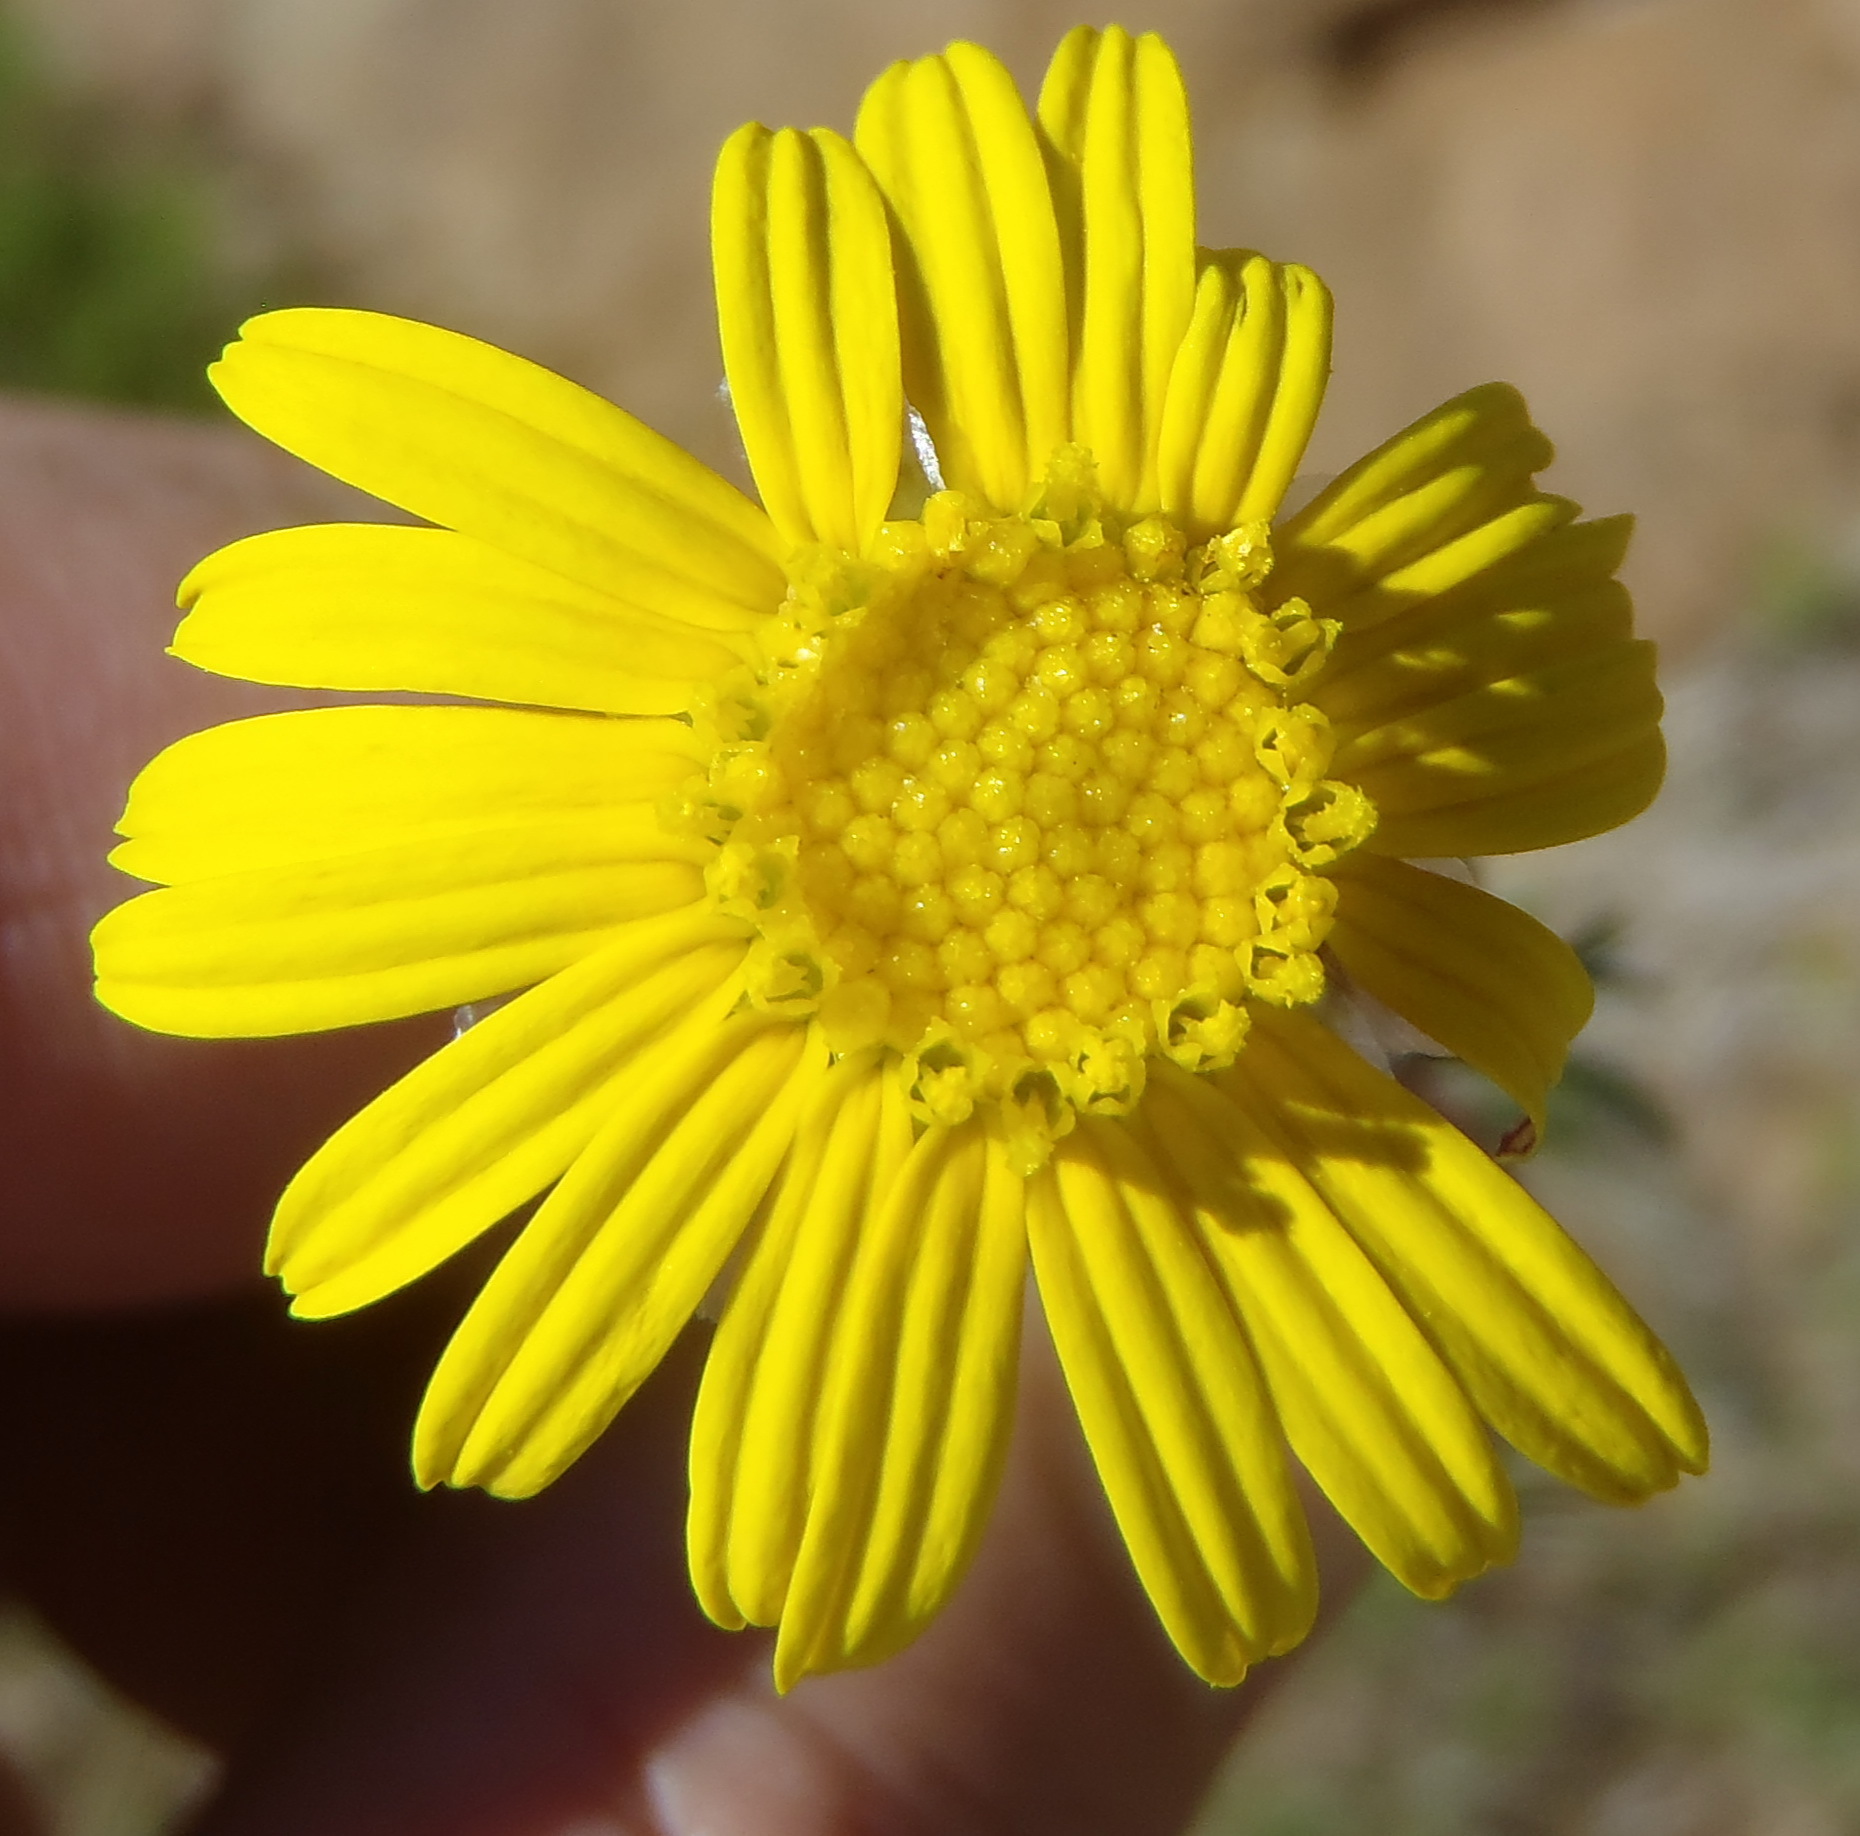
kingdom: Plantae
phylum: Tracheophyta
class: Magnoliopsida
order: Asterales
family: Asteraceae
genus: Ursinia
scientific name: Ursinia nana
